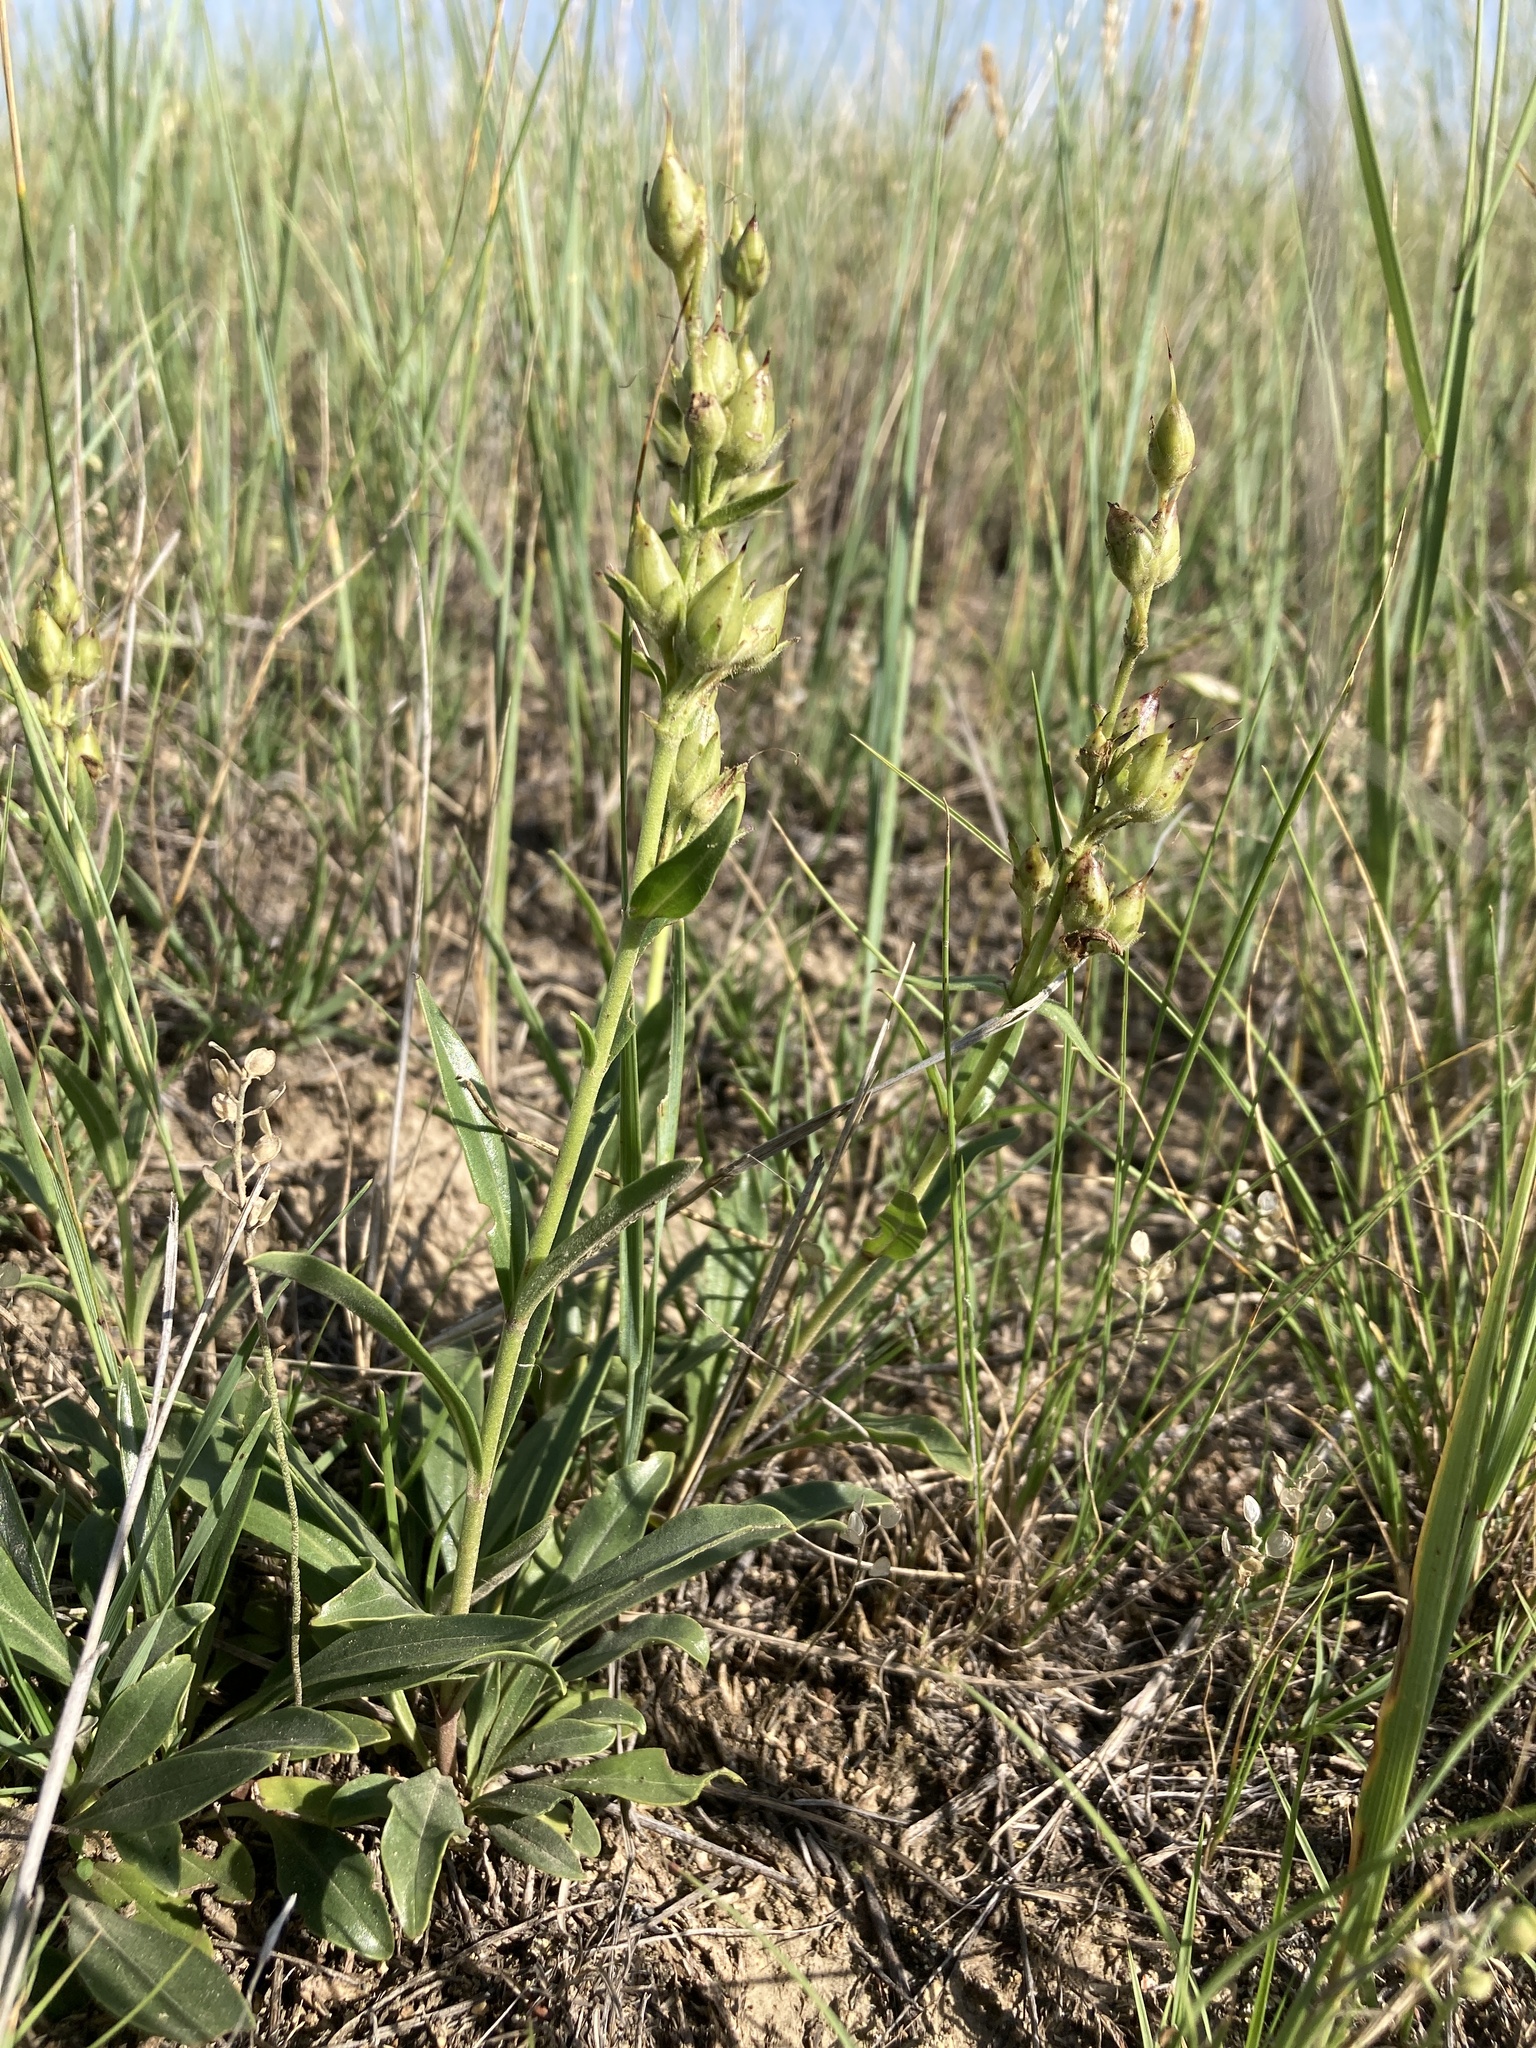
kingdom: Plantae
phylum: Tracheophyta
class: Magnoliopsida
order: Lamiales
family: Plantaginaceae
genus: Penstemon
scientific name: Penstemon albidus
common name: White beardtongue
